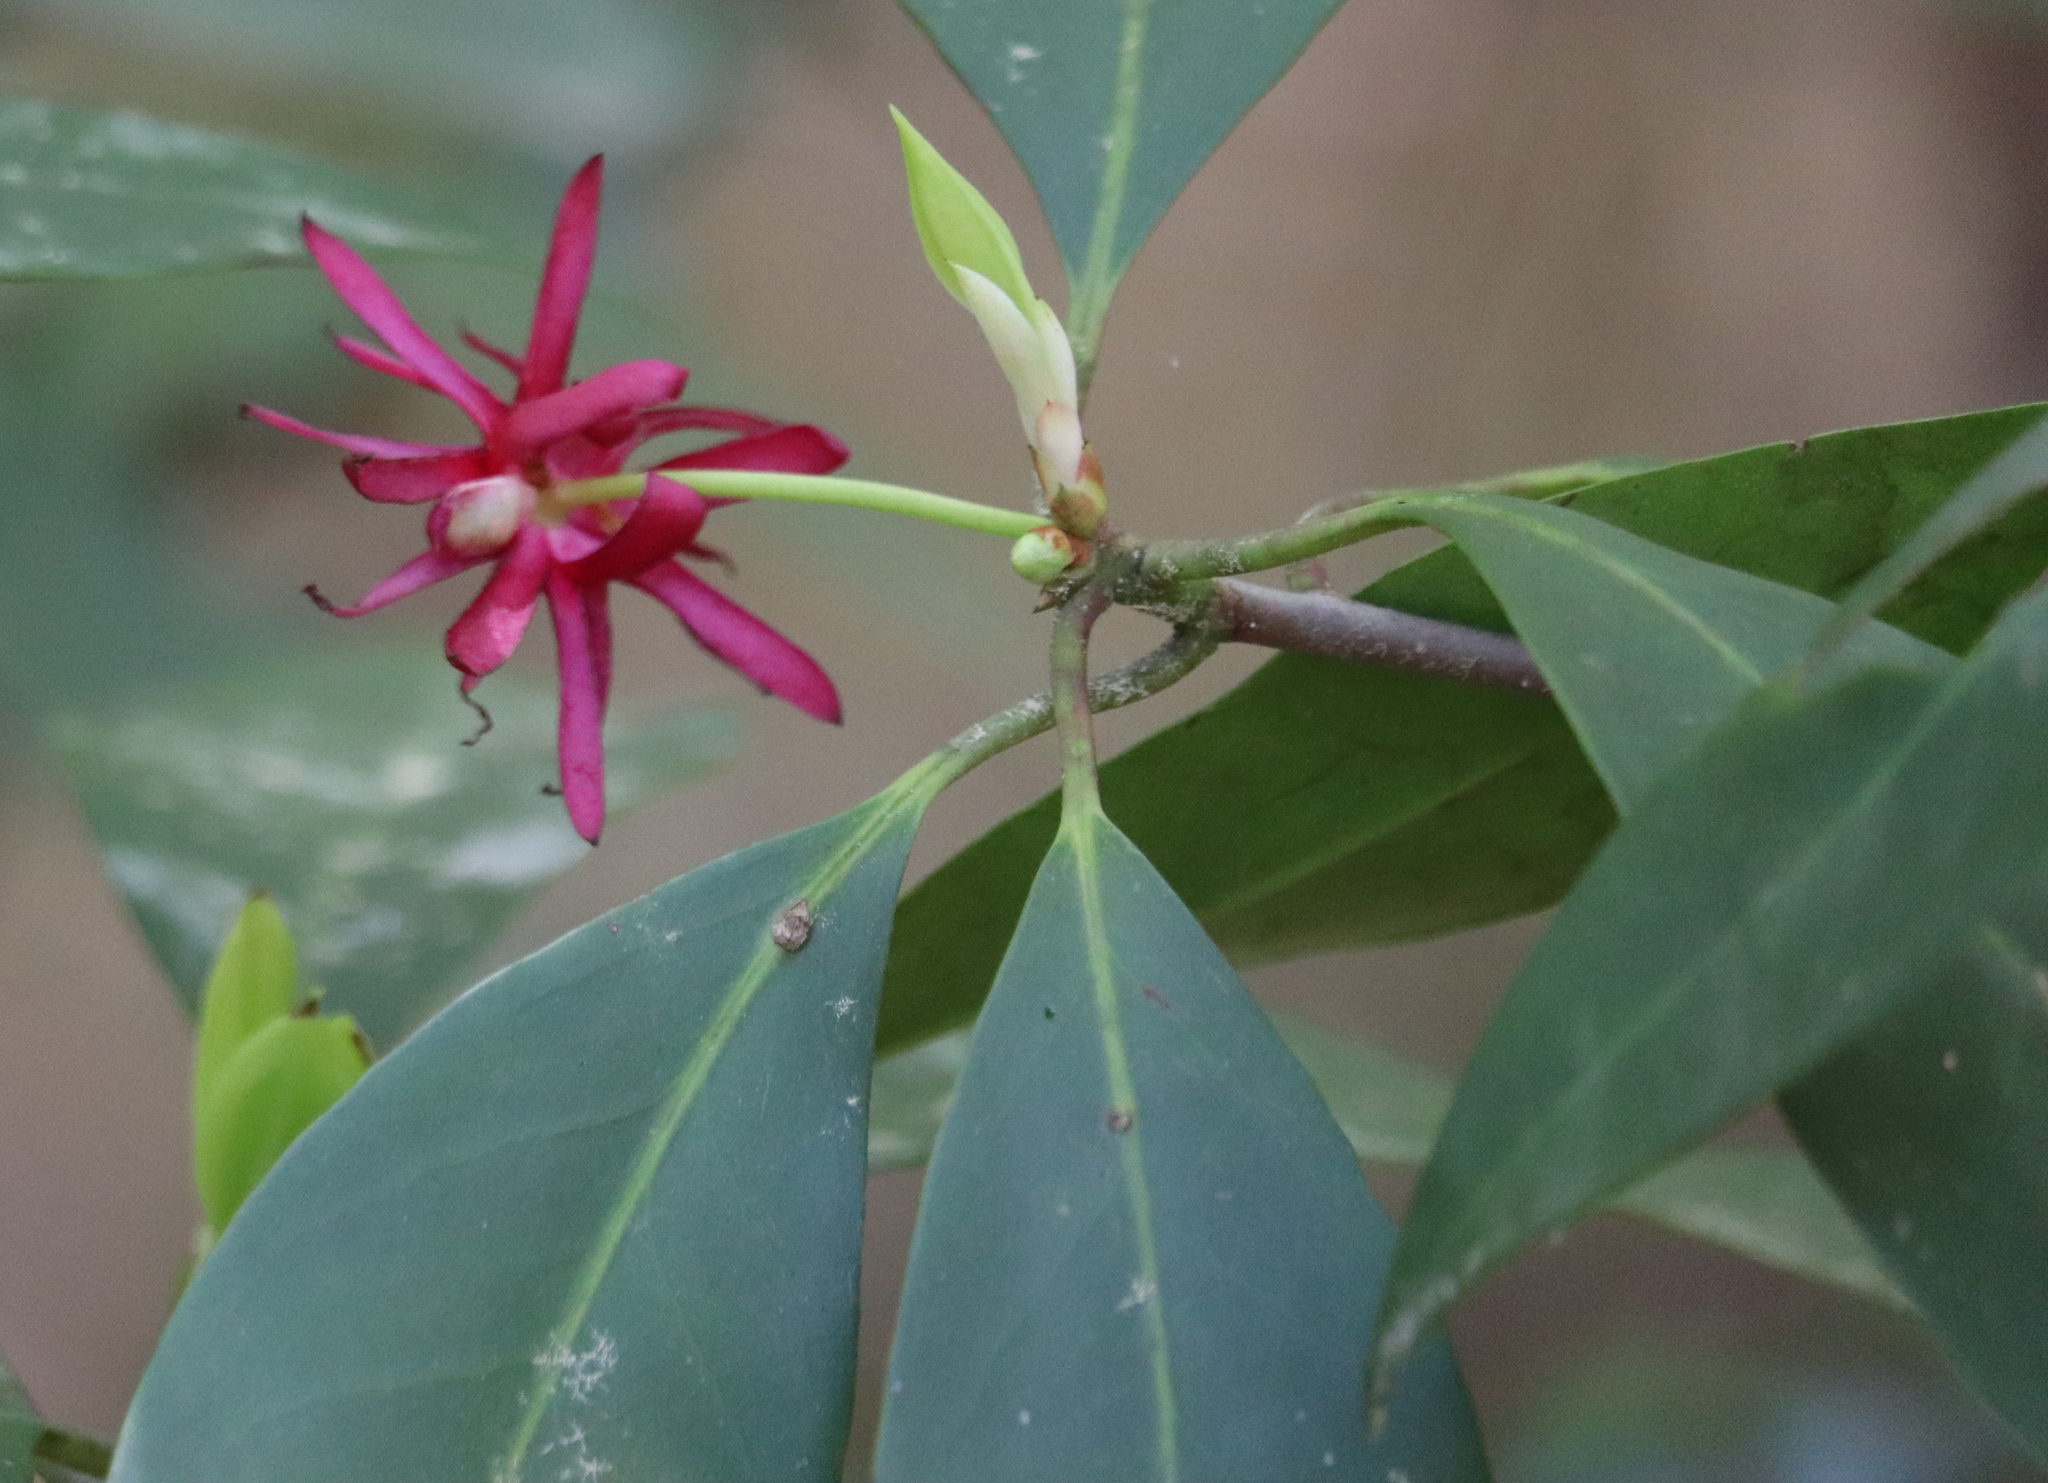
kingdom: Plantae
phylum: Tracheophyta
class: Magnoliopsida
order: Austrobaileyales
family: Schisandraceae
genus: Illicium
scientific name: Illicium floridanum
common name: Florida anisetree
